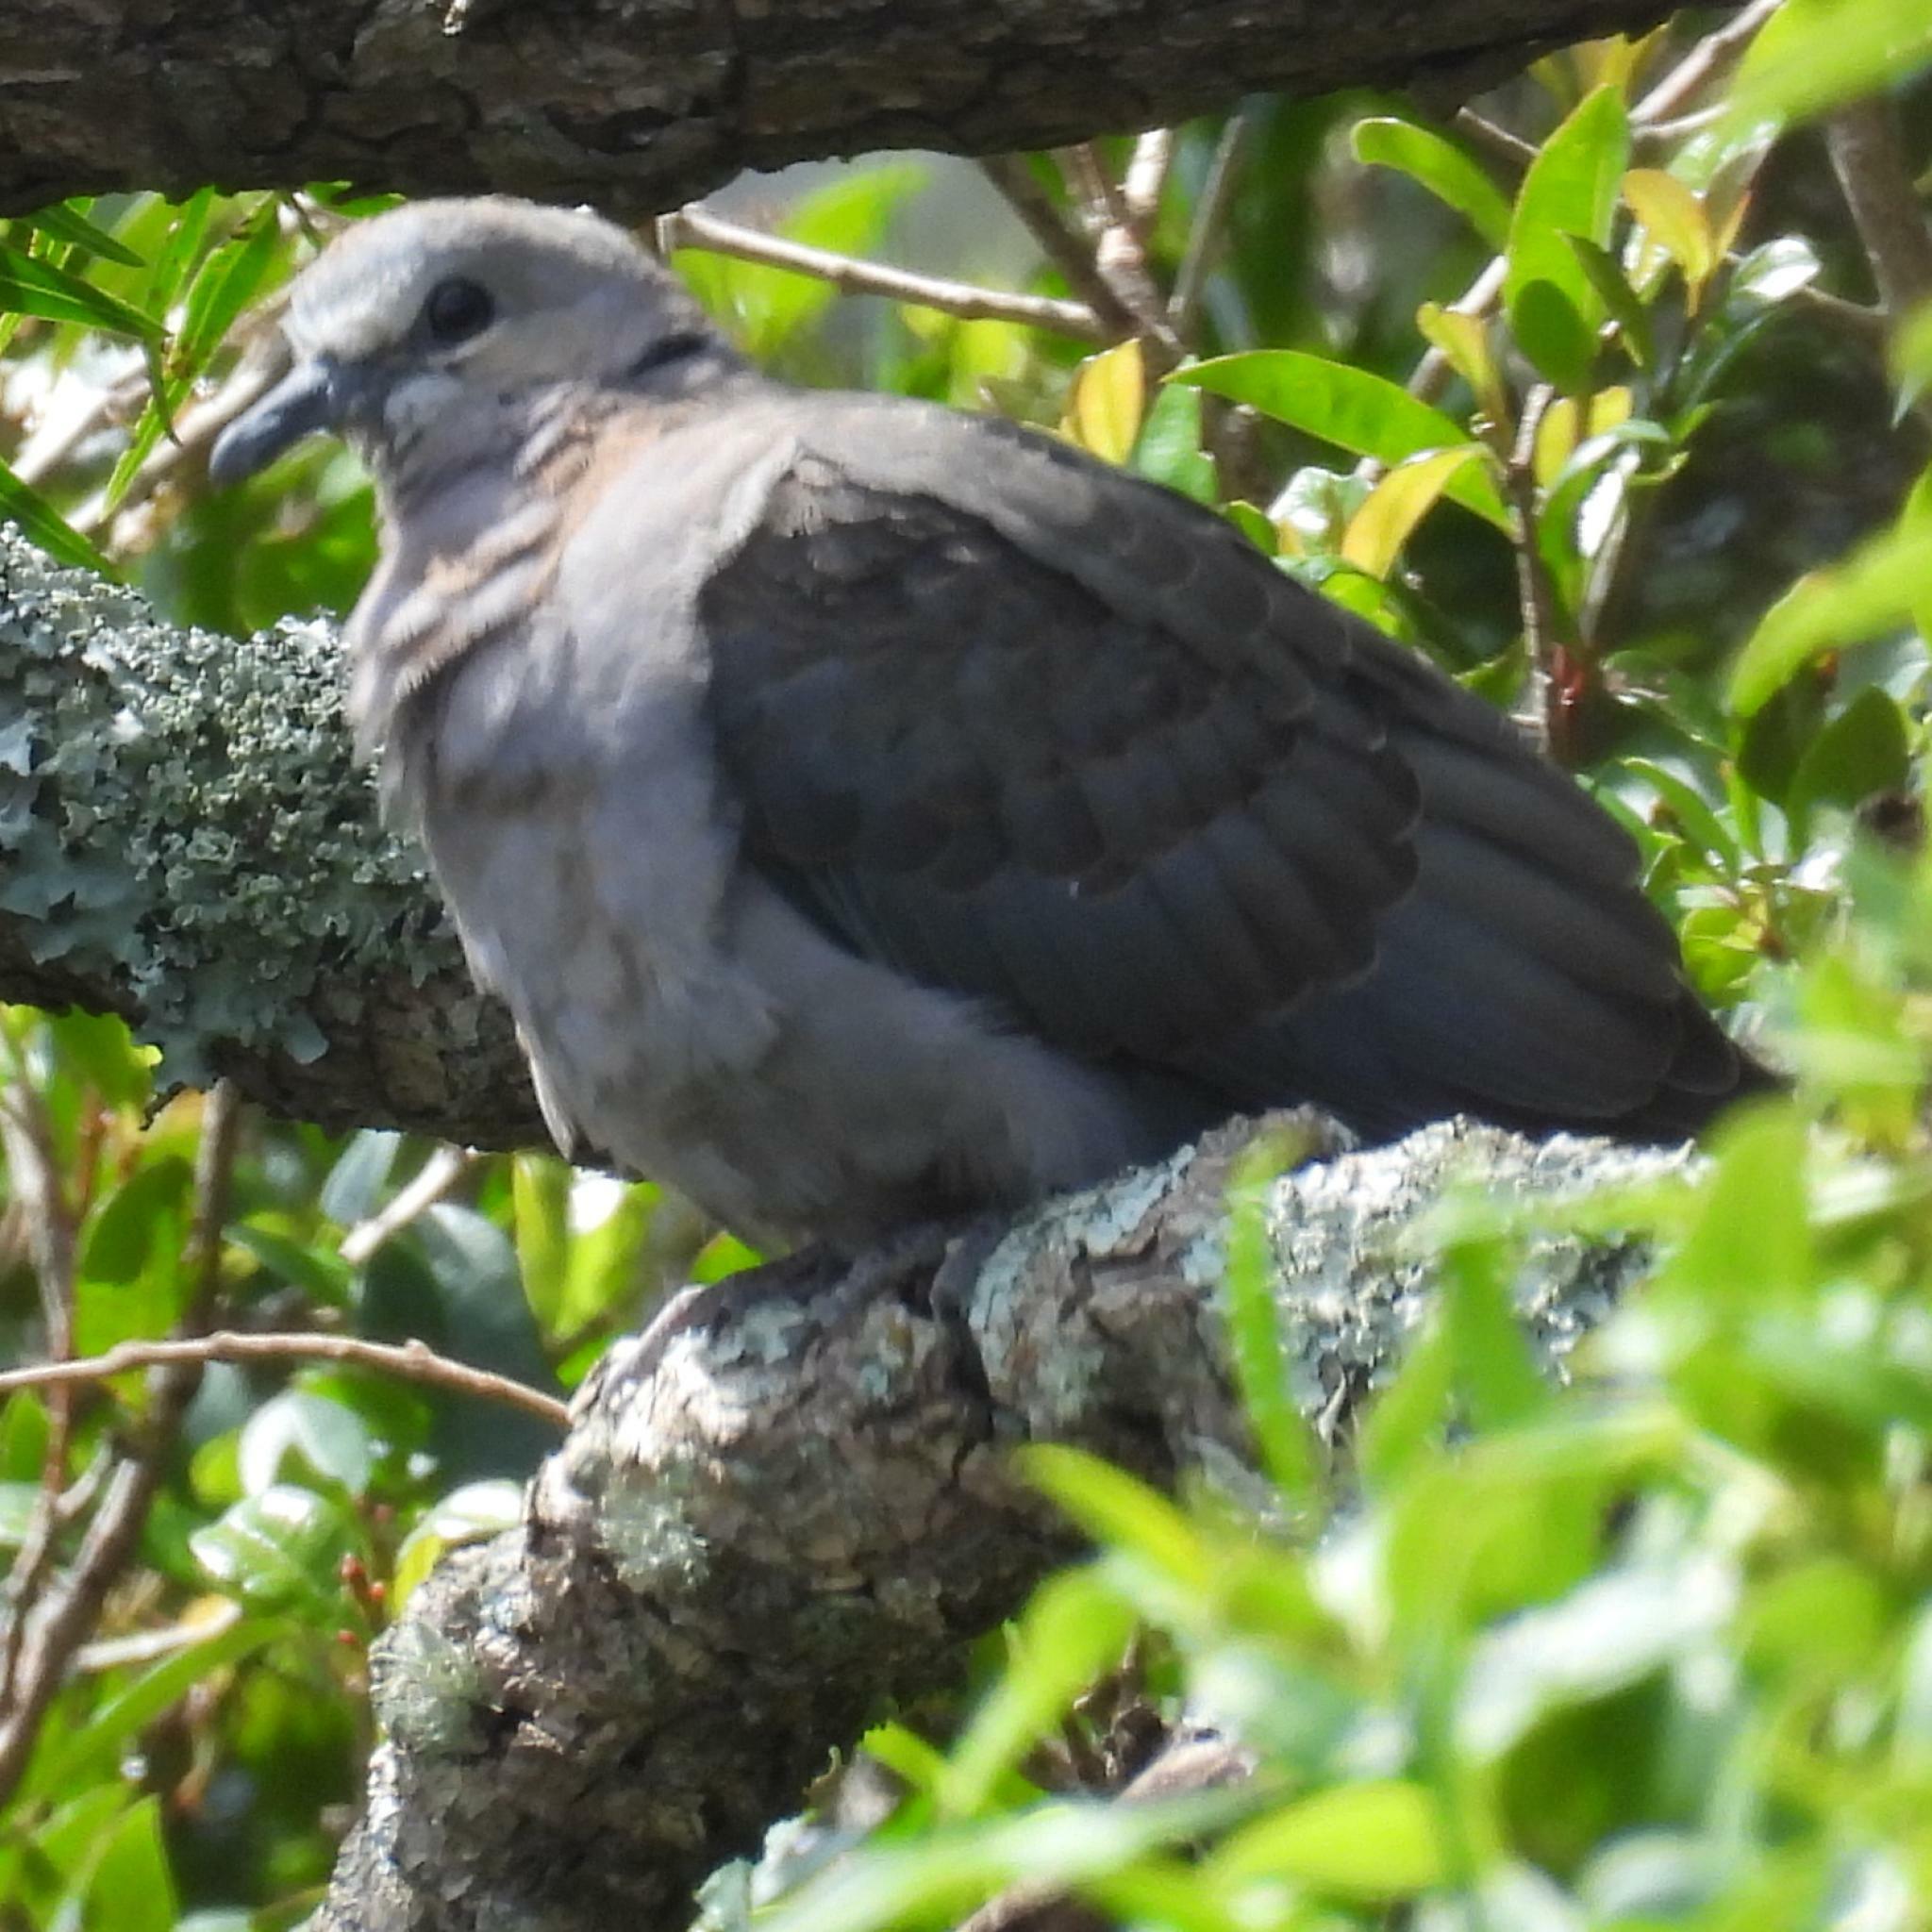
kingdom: Animalia
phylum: Chordata
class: Aves
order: Columbiformes
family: Columbidae
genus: Streptopelia
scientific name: Streptopelia capicola
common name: Ring-necked dove
